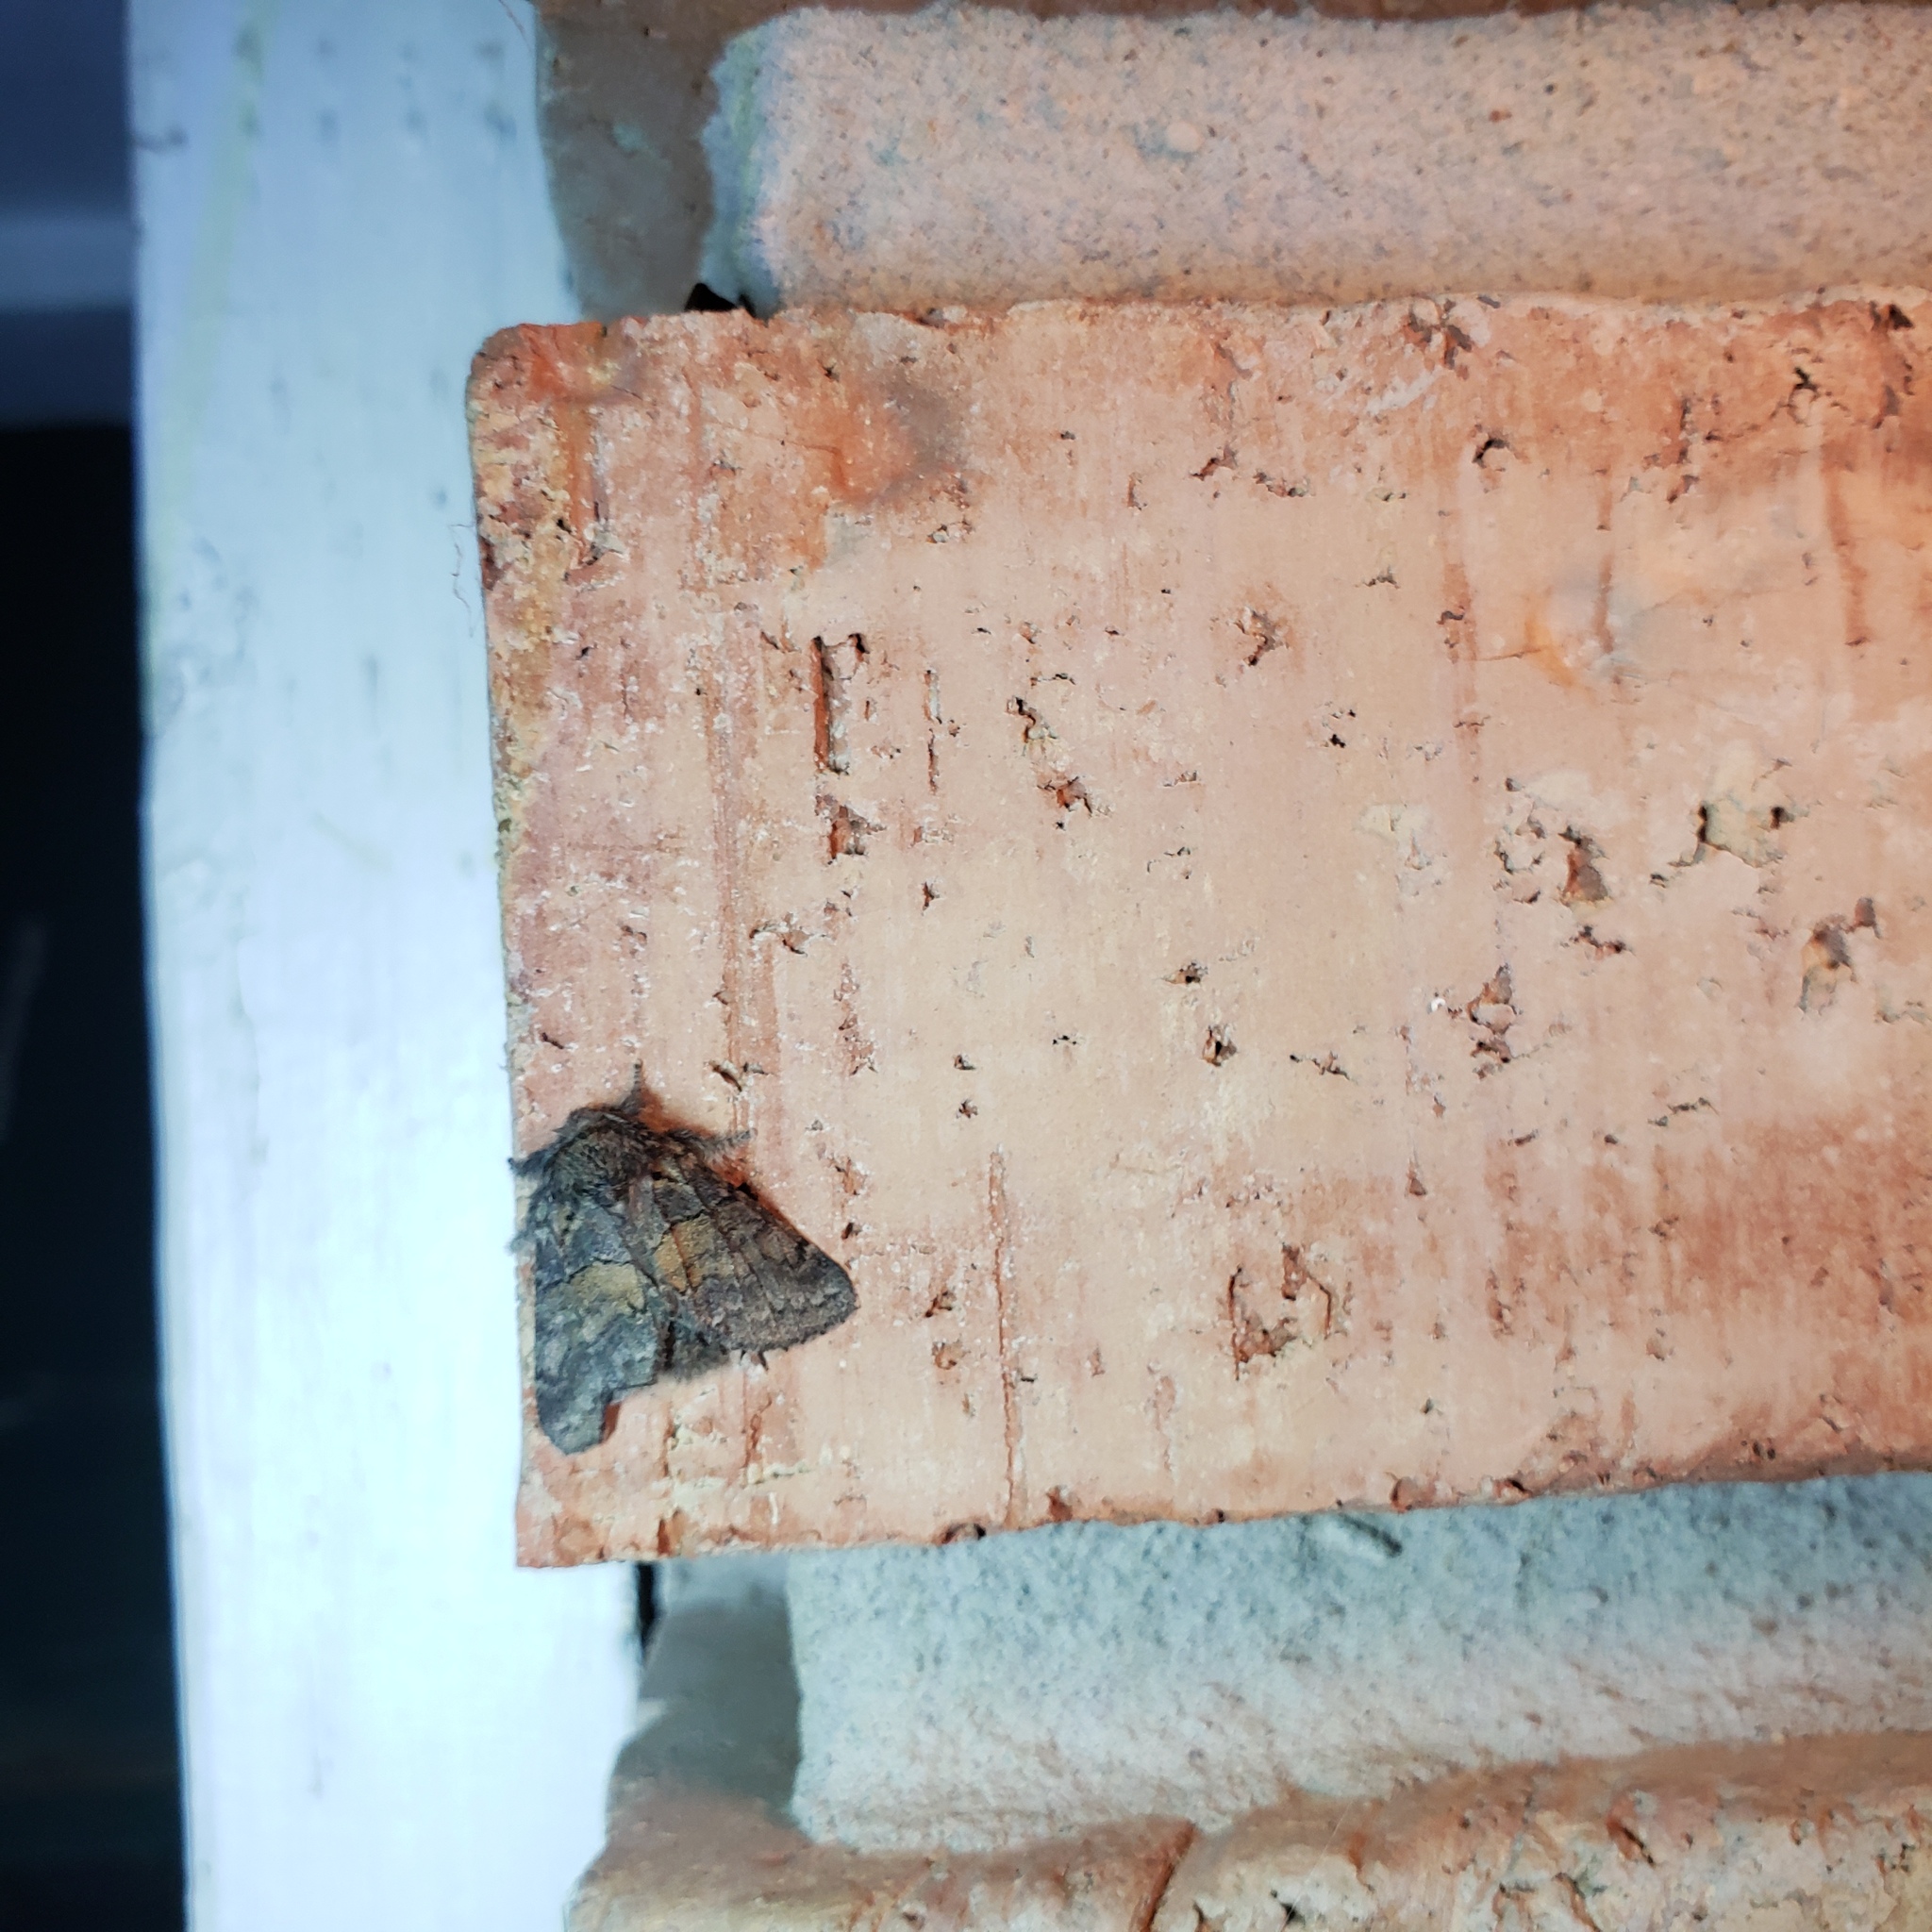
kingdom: Animalia
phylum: Arthropoda
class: Insecta
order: Lepidoptera
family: Notodontidae
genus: Gluphisia
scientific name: Gluphisia septentrionis
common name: Common gluphisia
